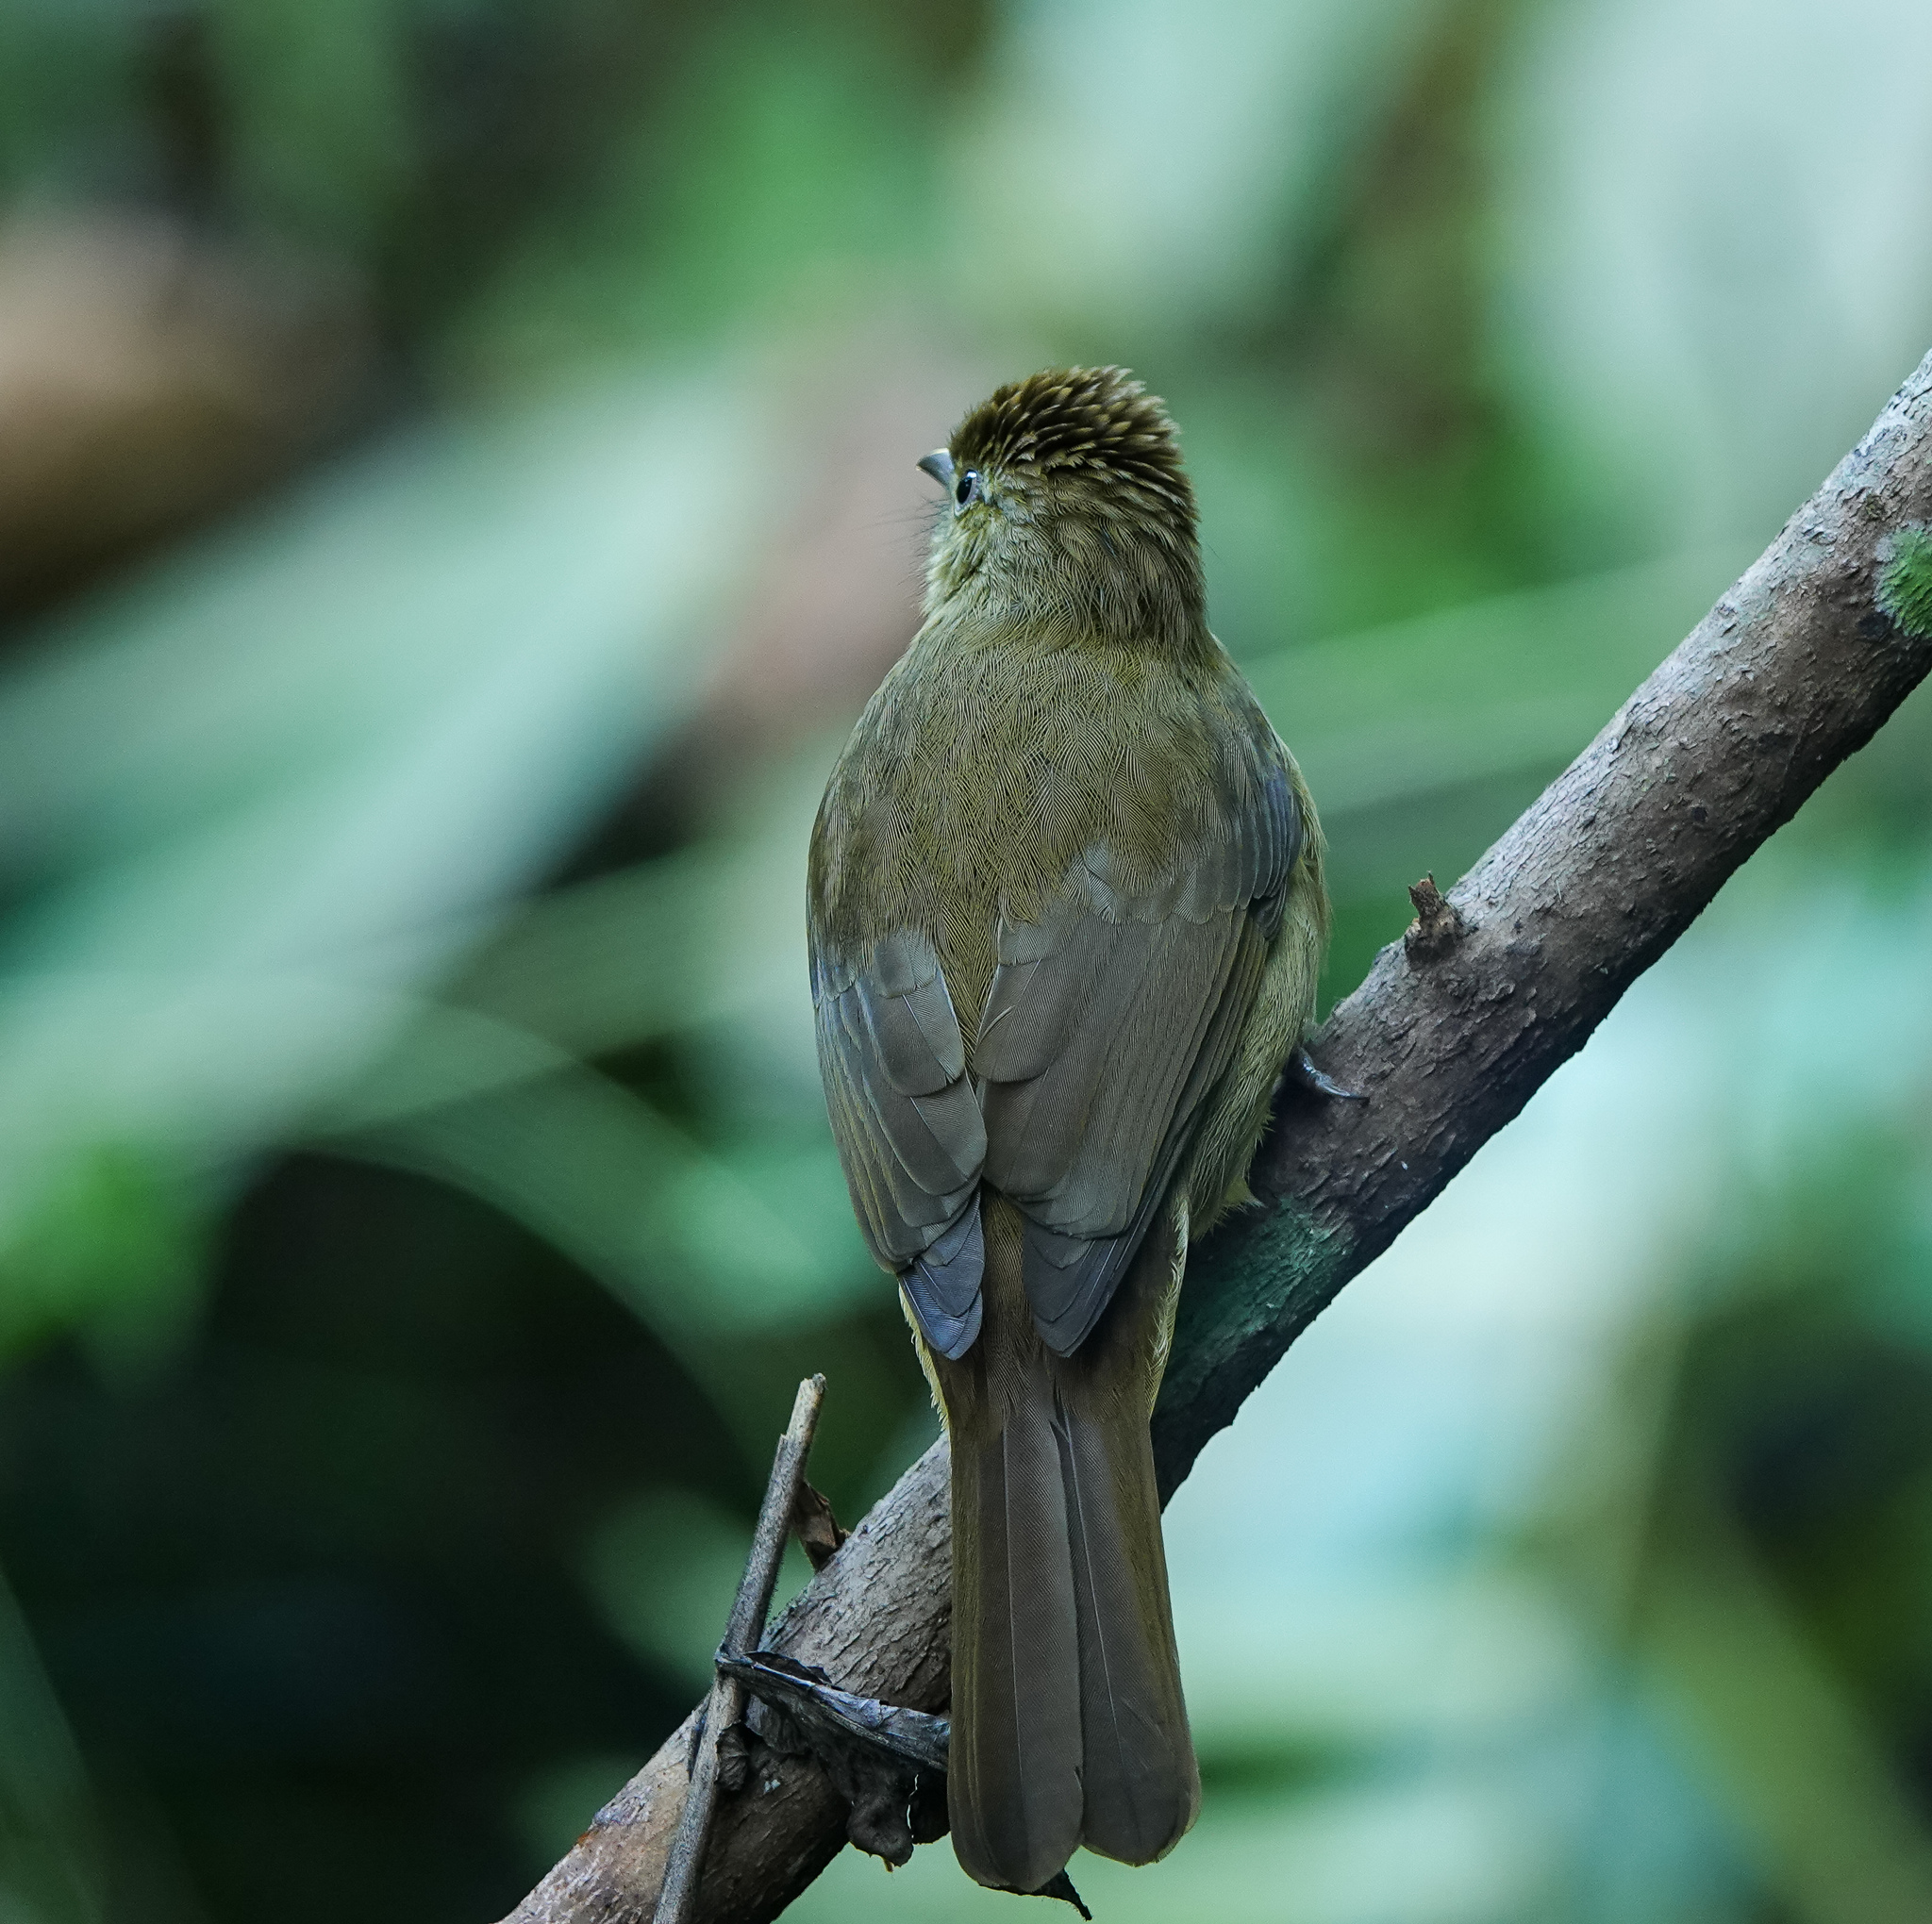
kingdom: Animalia
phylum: Chordata
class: Aves
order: Passeriformes
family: Pycnonotidae
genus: Iole
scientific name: Iole virescens
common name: Olive bulbul
